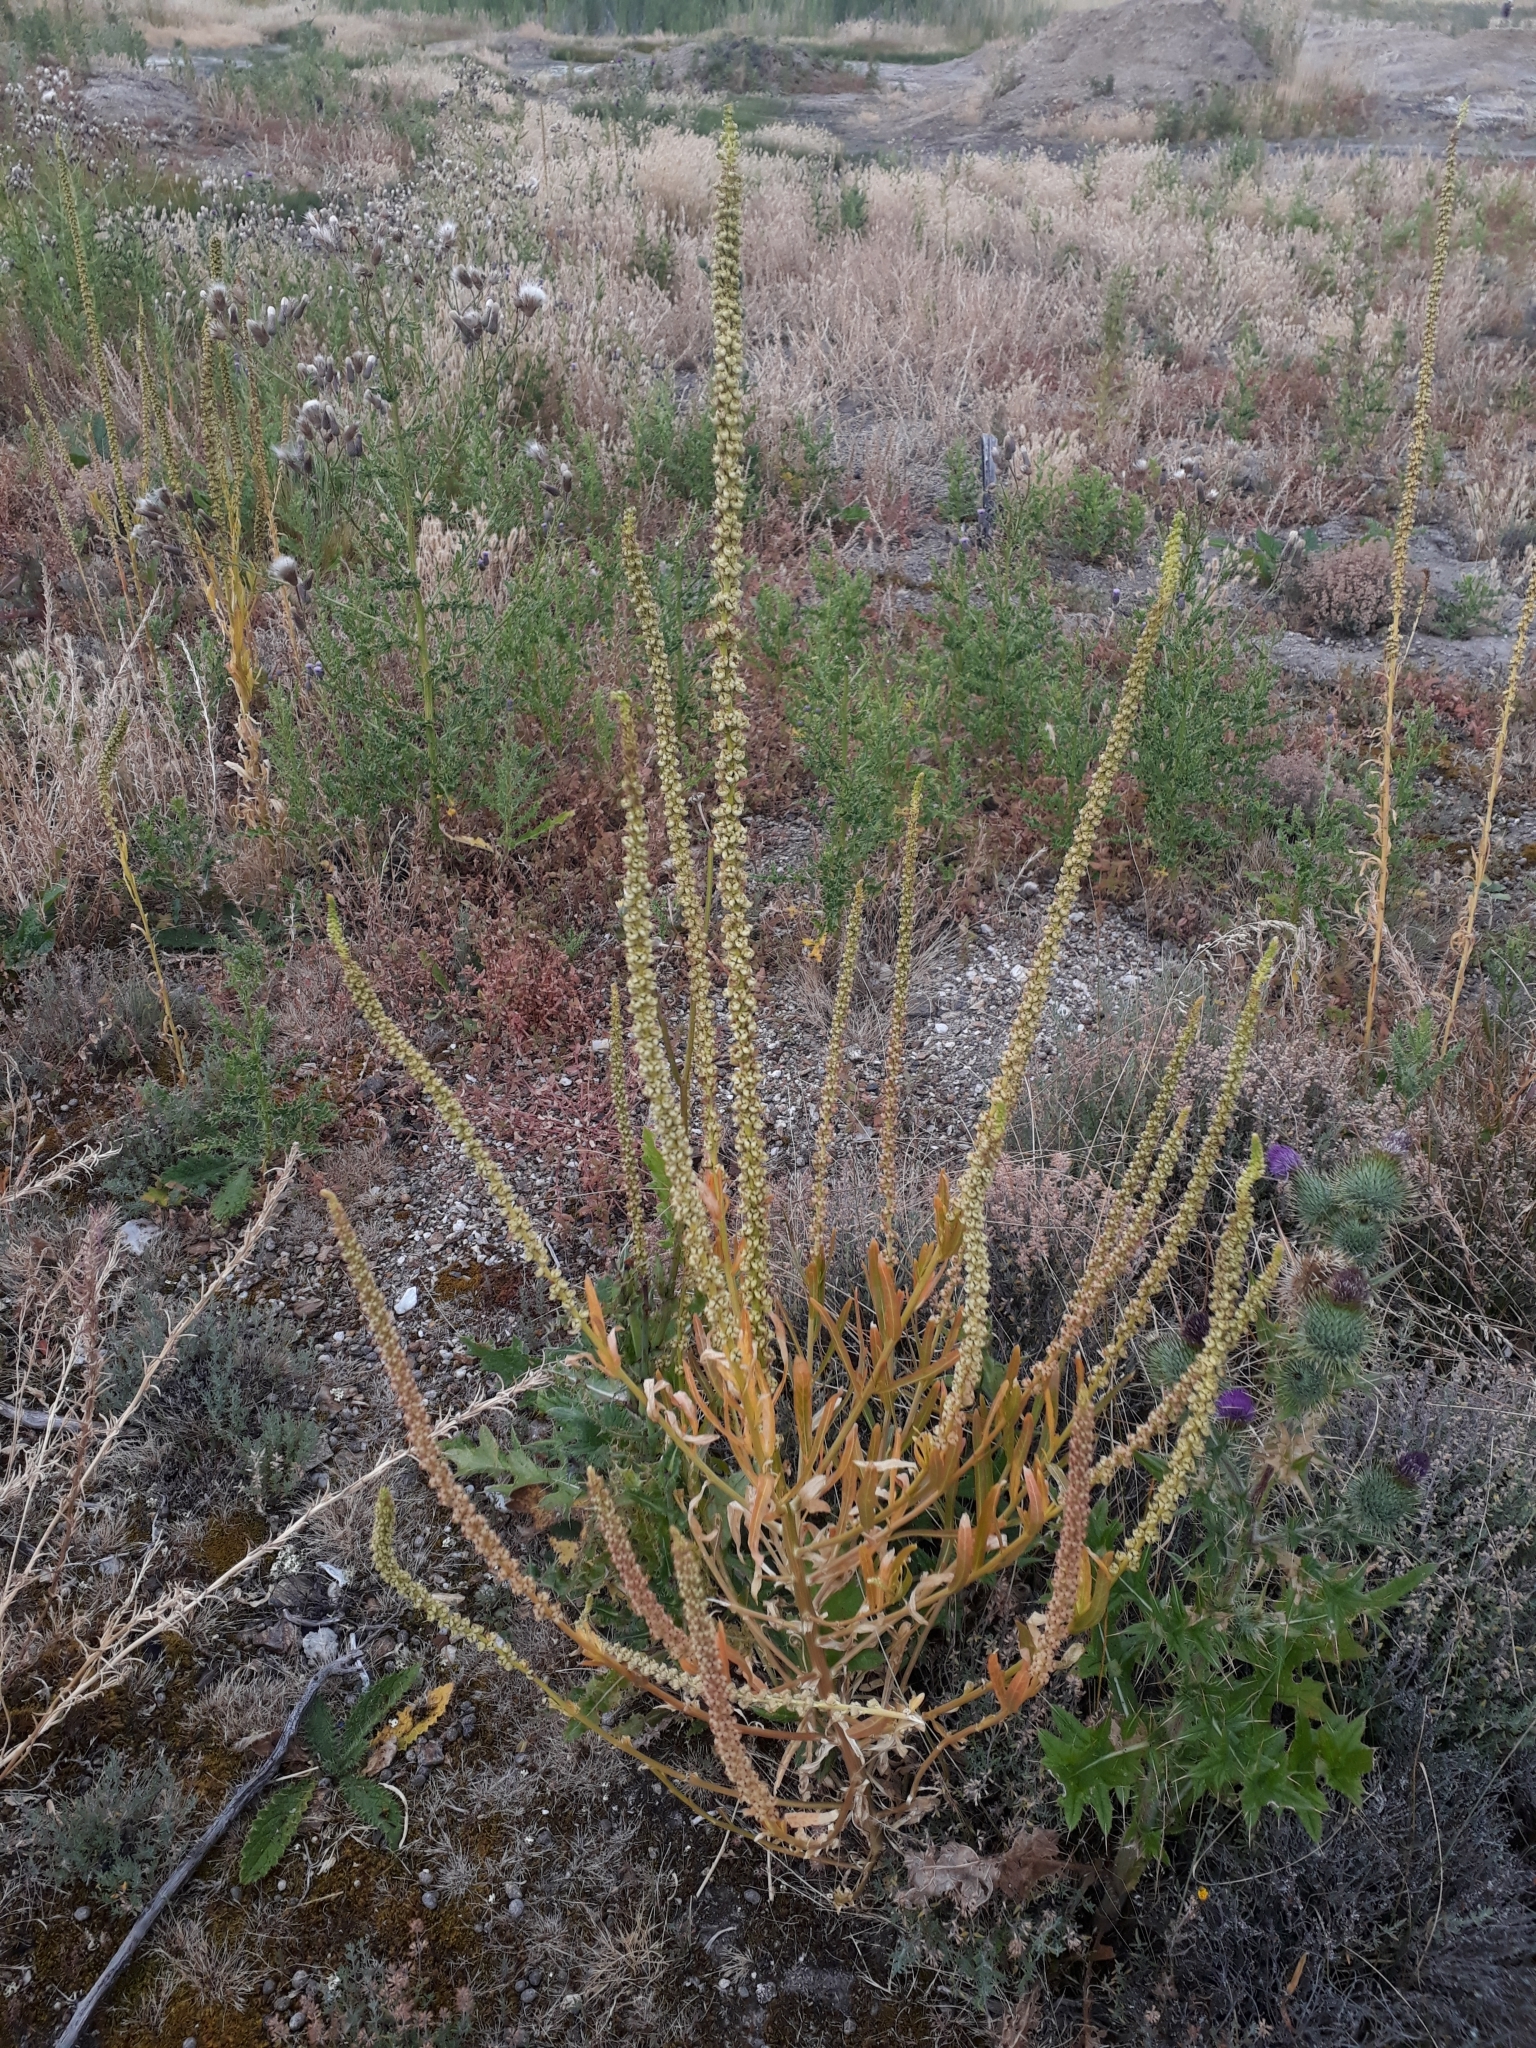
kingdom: Plantae
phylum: Tracheophyta
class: Magnoliopsida
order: Brassicales
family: Resedaceae
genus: Reseda
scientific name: Reseda luteola
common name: Weld
